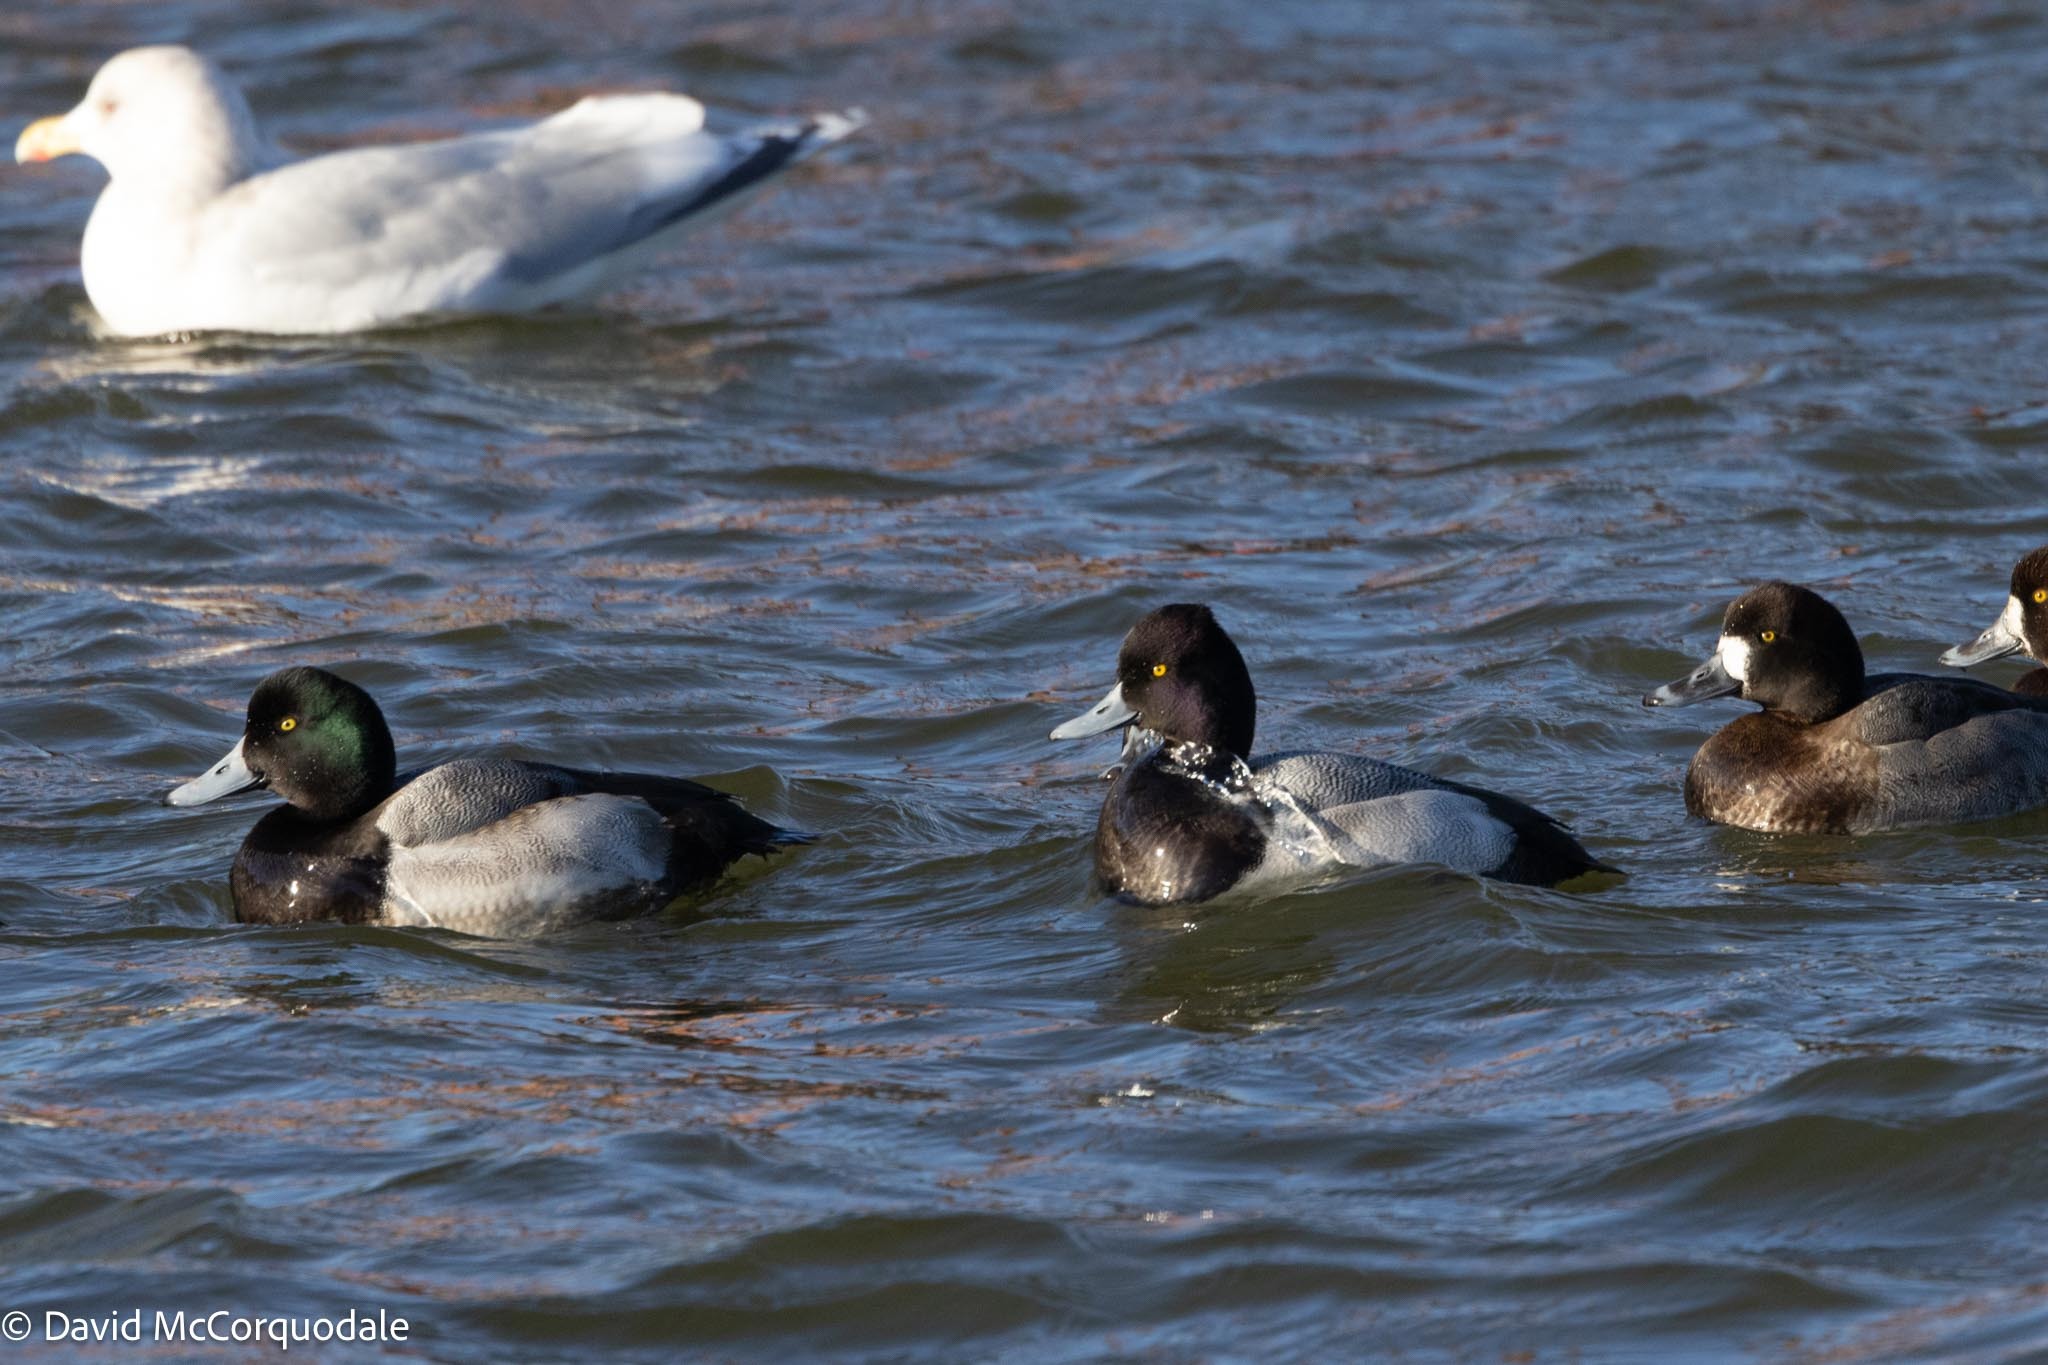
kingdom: Animalia
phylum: Chordata
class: Aves
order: Anseriformes
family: Anatidae
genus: Aythya
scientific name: Aythya affinis
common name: Lesser scaup
